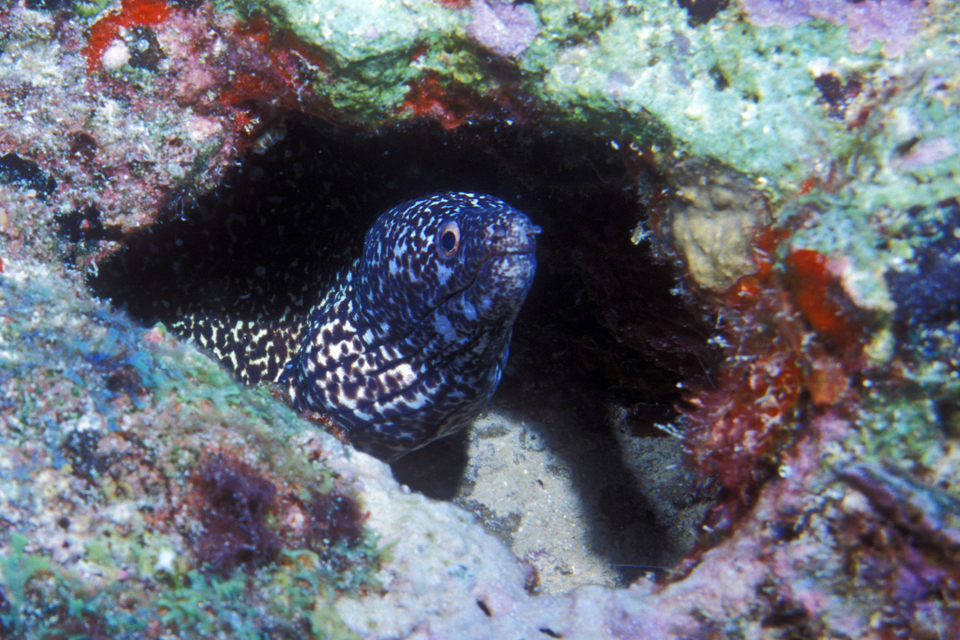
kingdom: Animalia
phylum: Chordata
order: Anguilliformes
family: Muraenidae
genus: Gymnothorax
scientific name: Gymnothorax moringa
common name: Spotted moray
